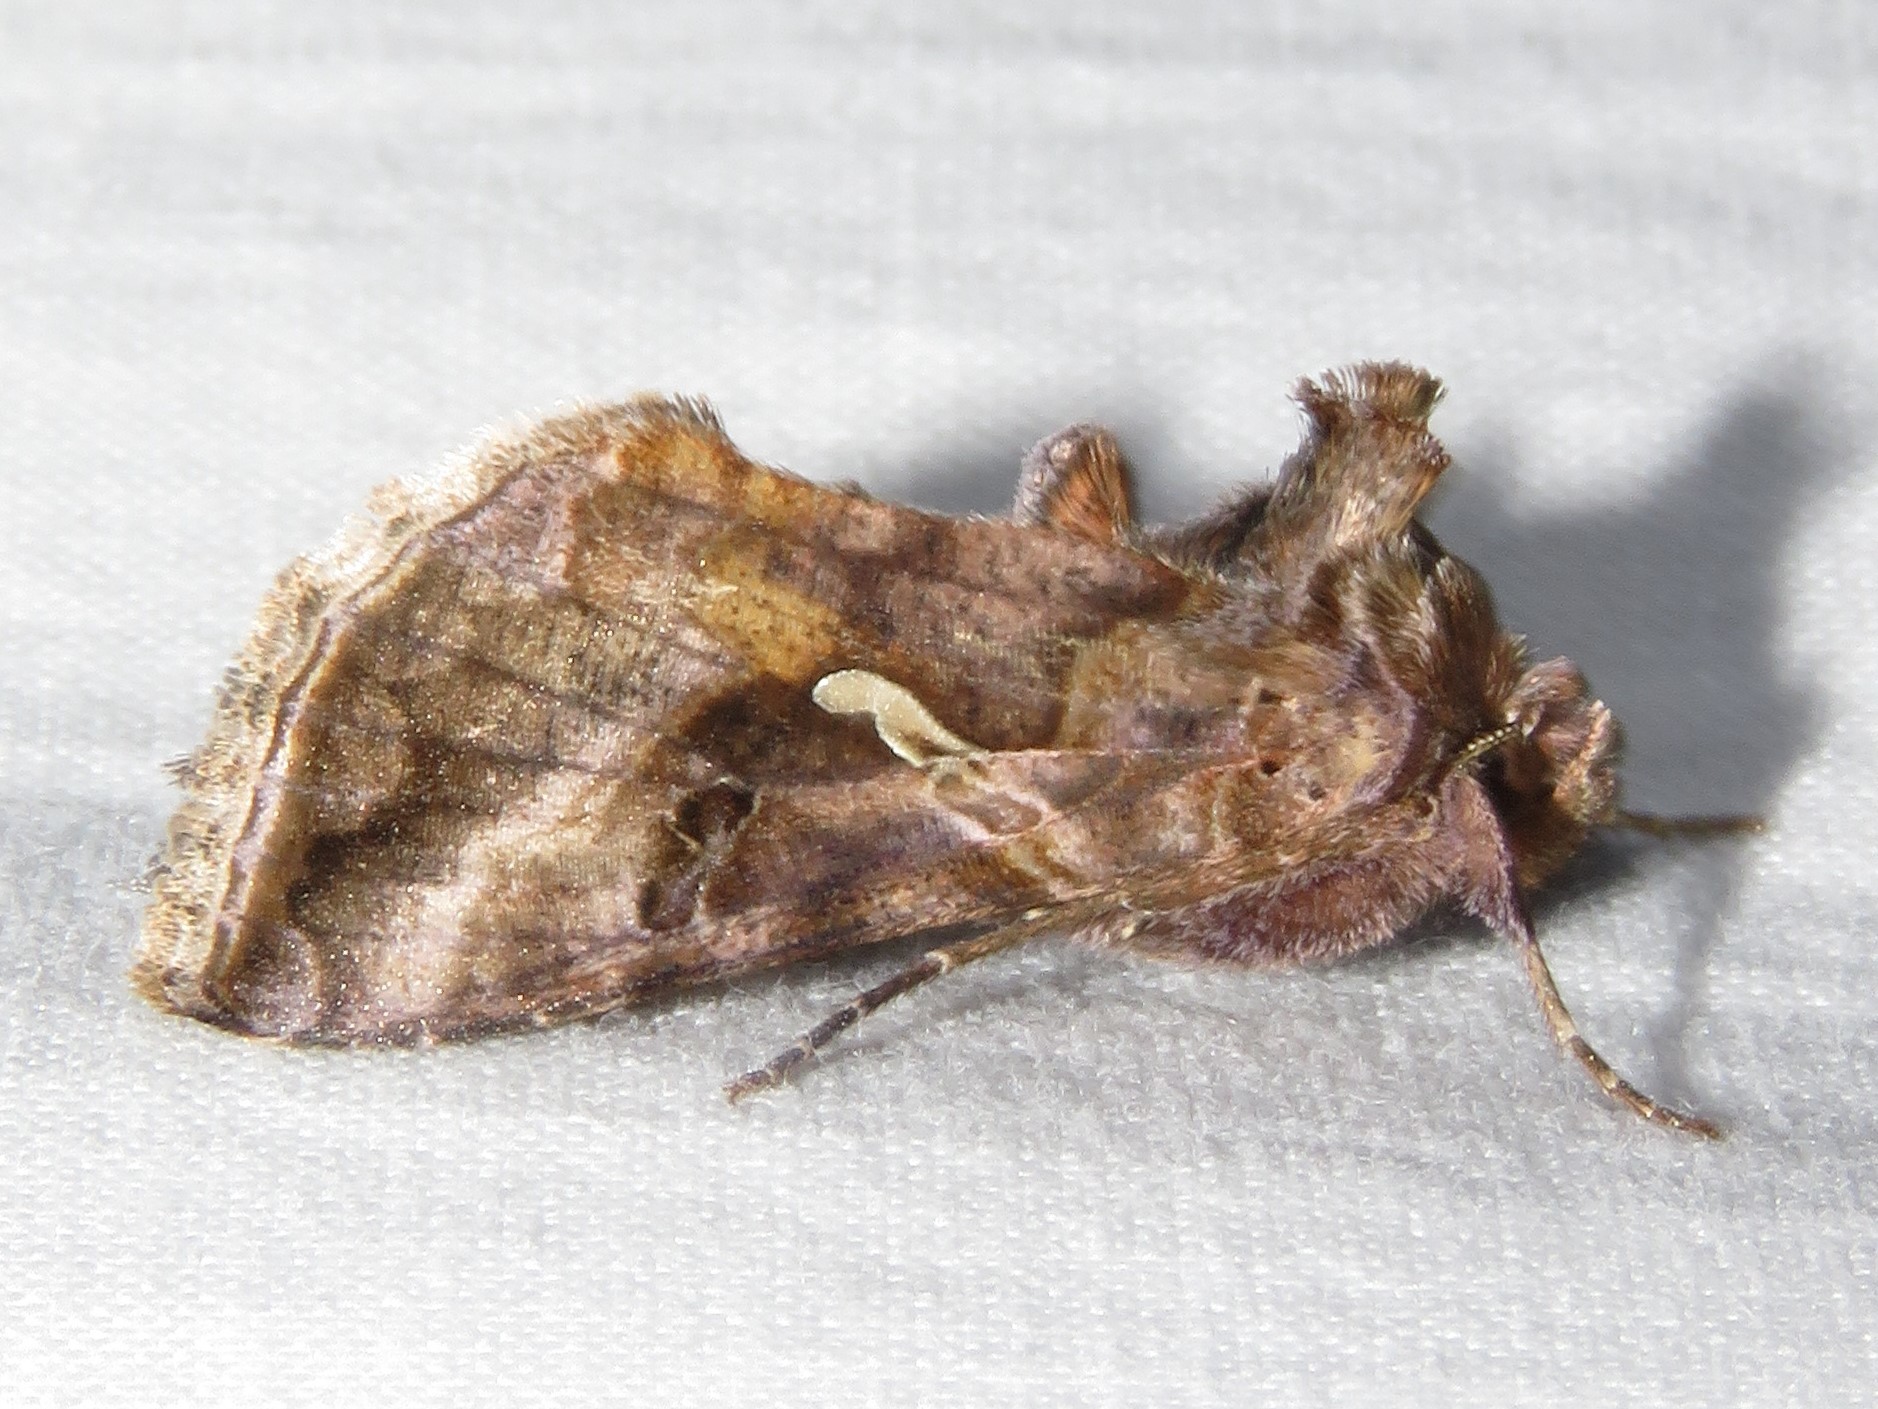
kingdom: Animalia
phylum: Arthropoda
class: Insecta
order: Lepidoptera
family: Noctuidae
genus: Autographa
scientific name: Autographa precationis
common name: Common looper moth
